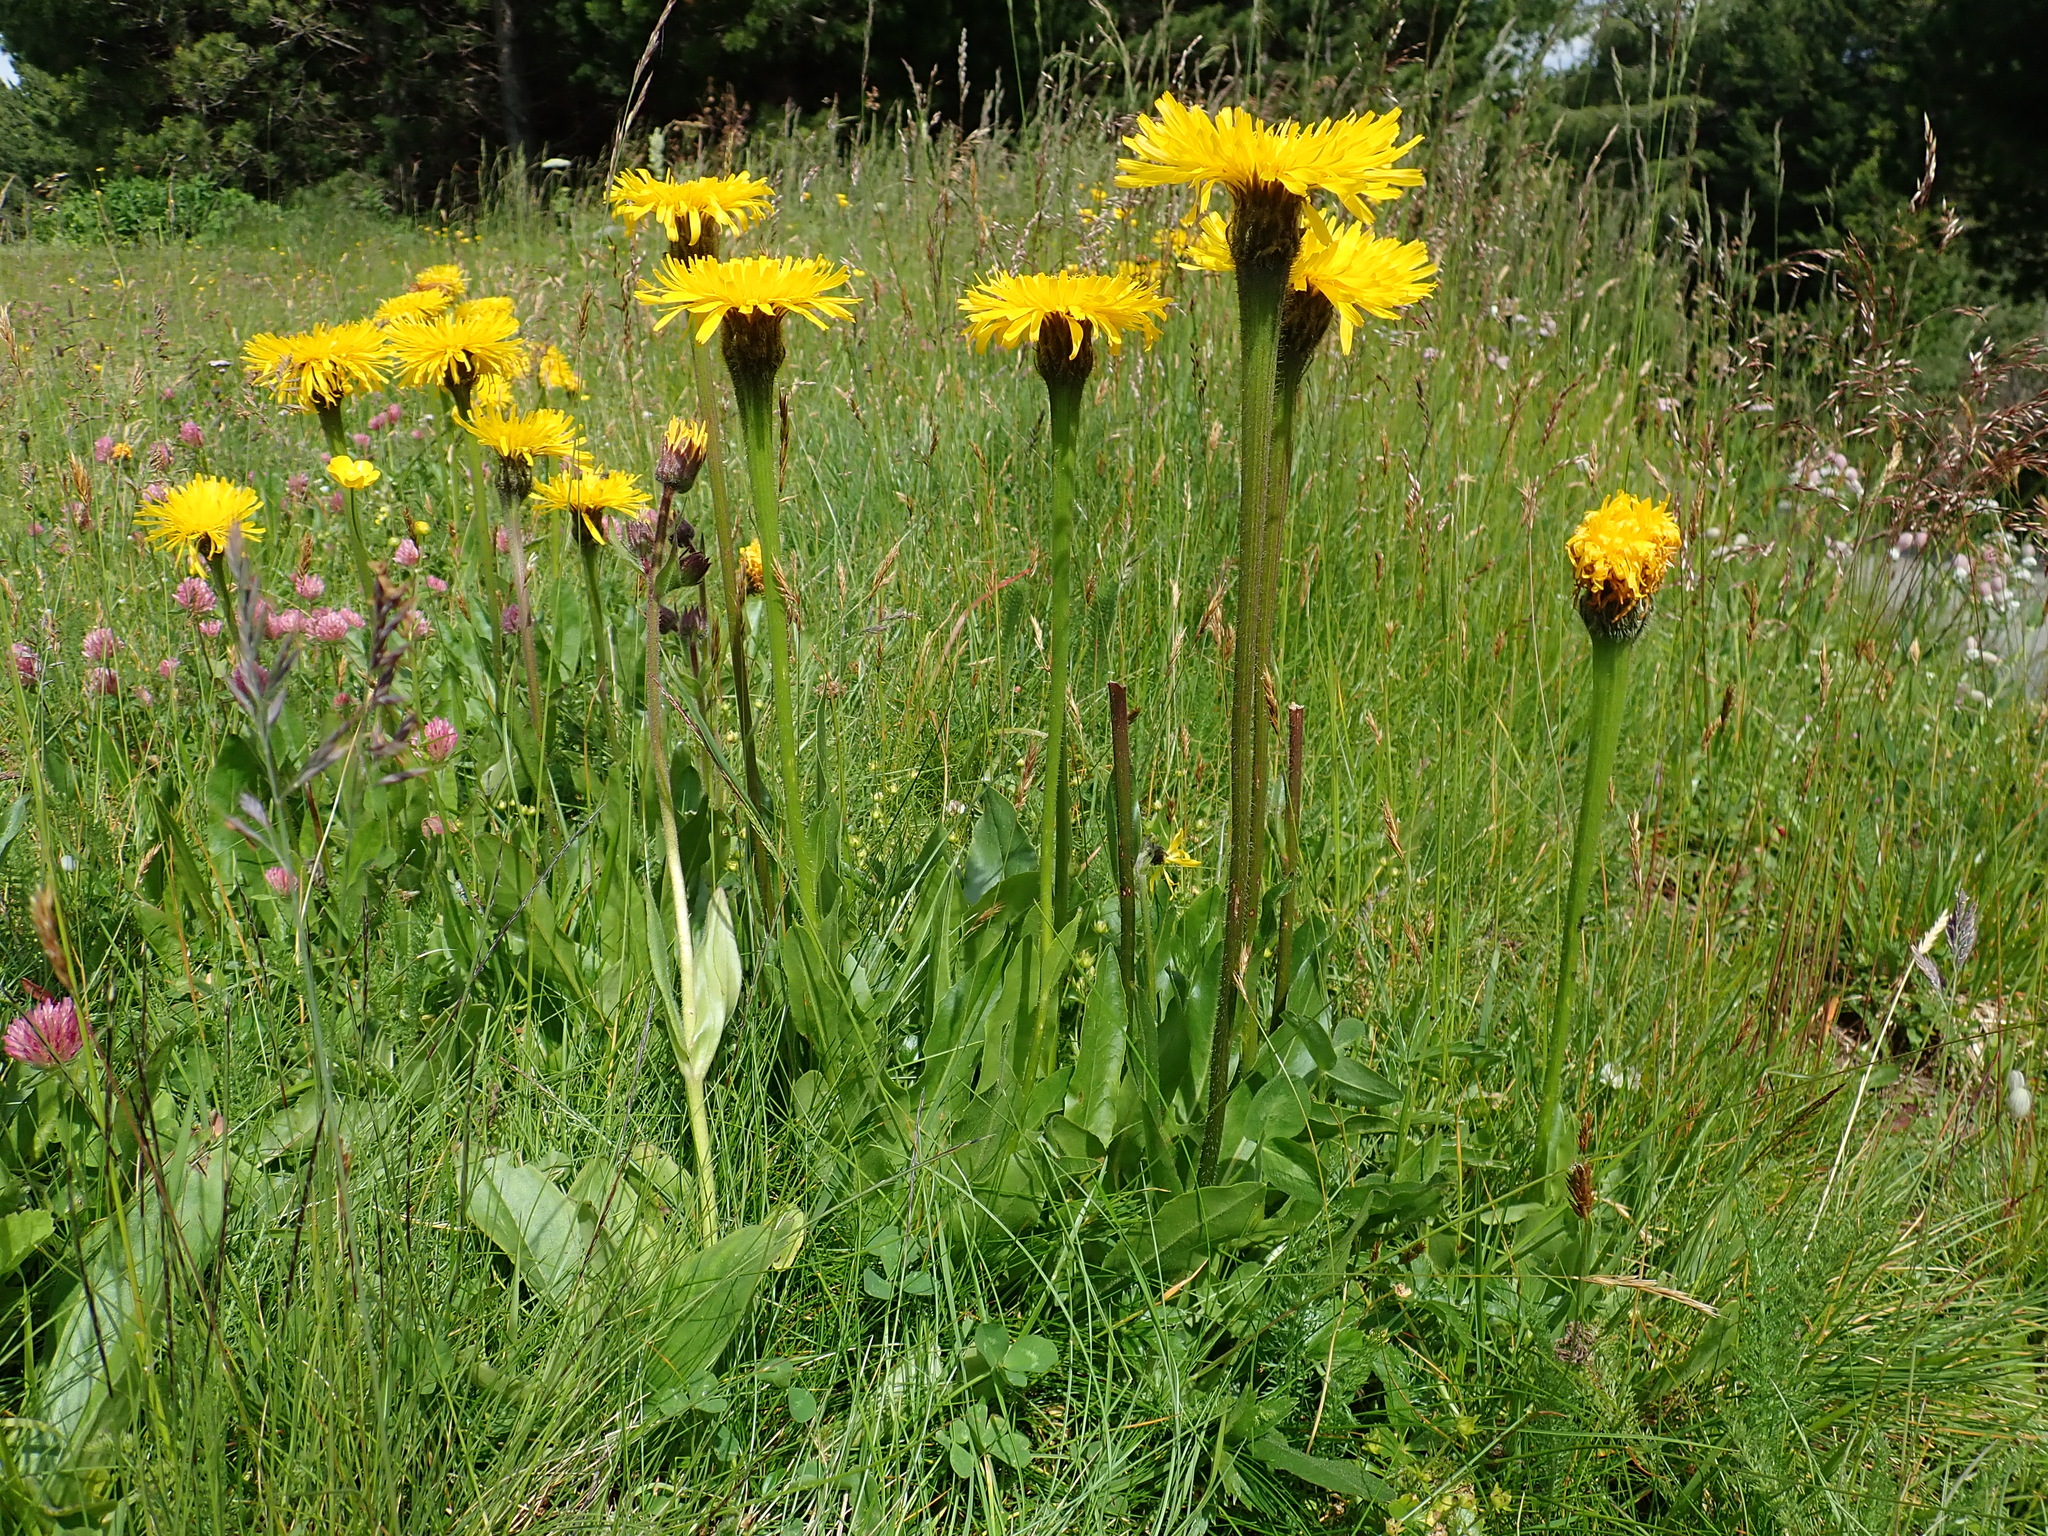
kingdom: Plantae
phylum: Tracheophyta
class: Magnoliopsida
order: Asterales
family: Asteraceae
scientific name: Asteraceae
